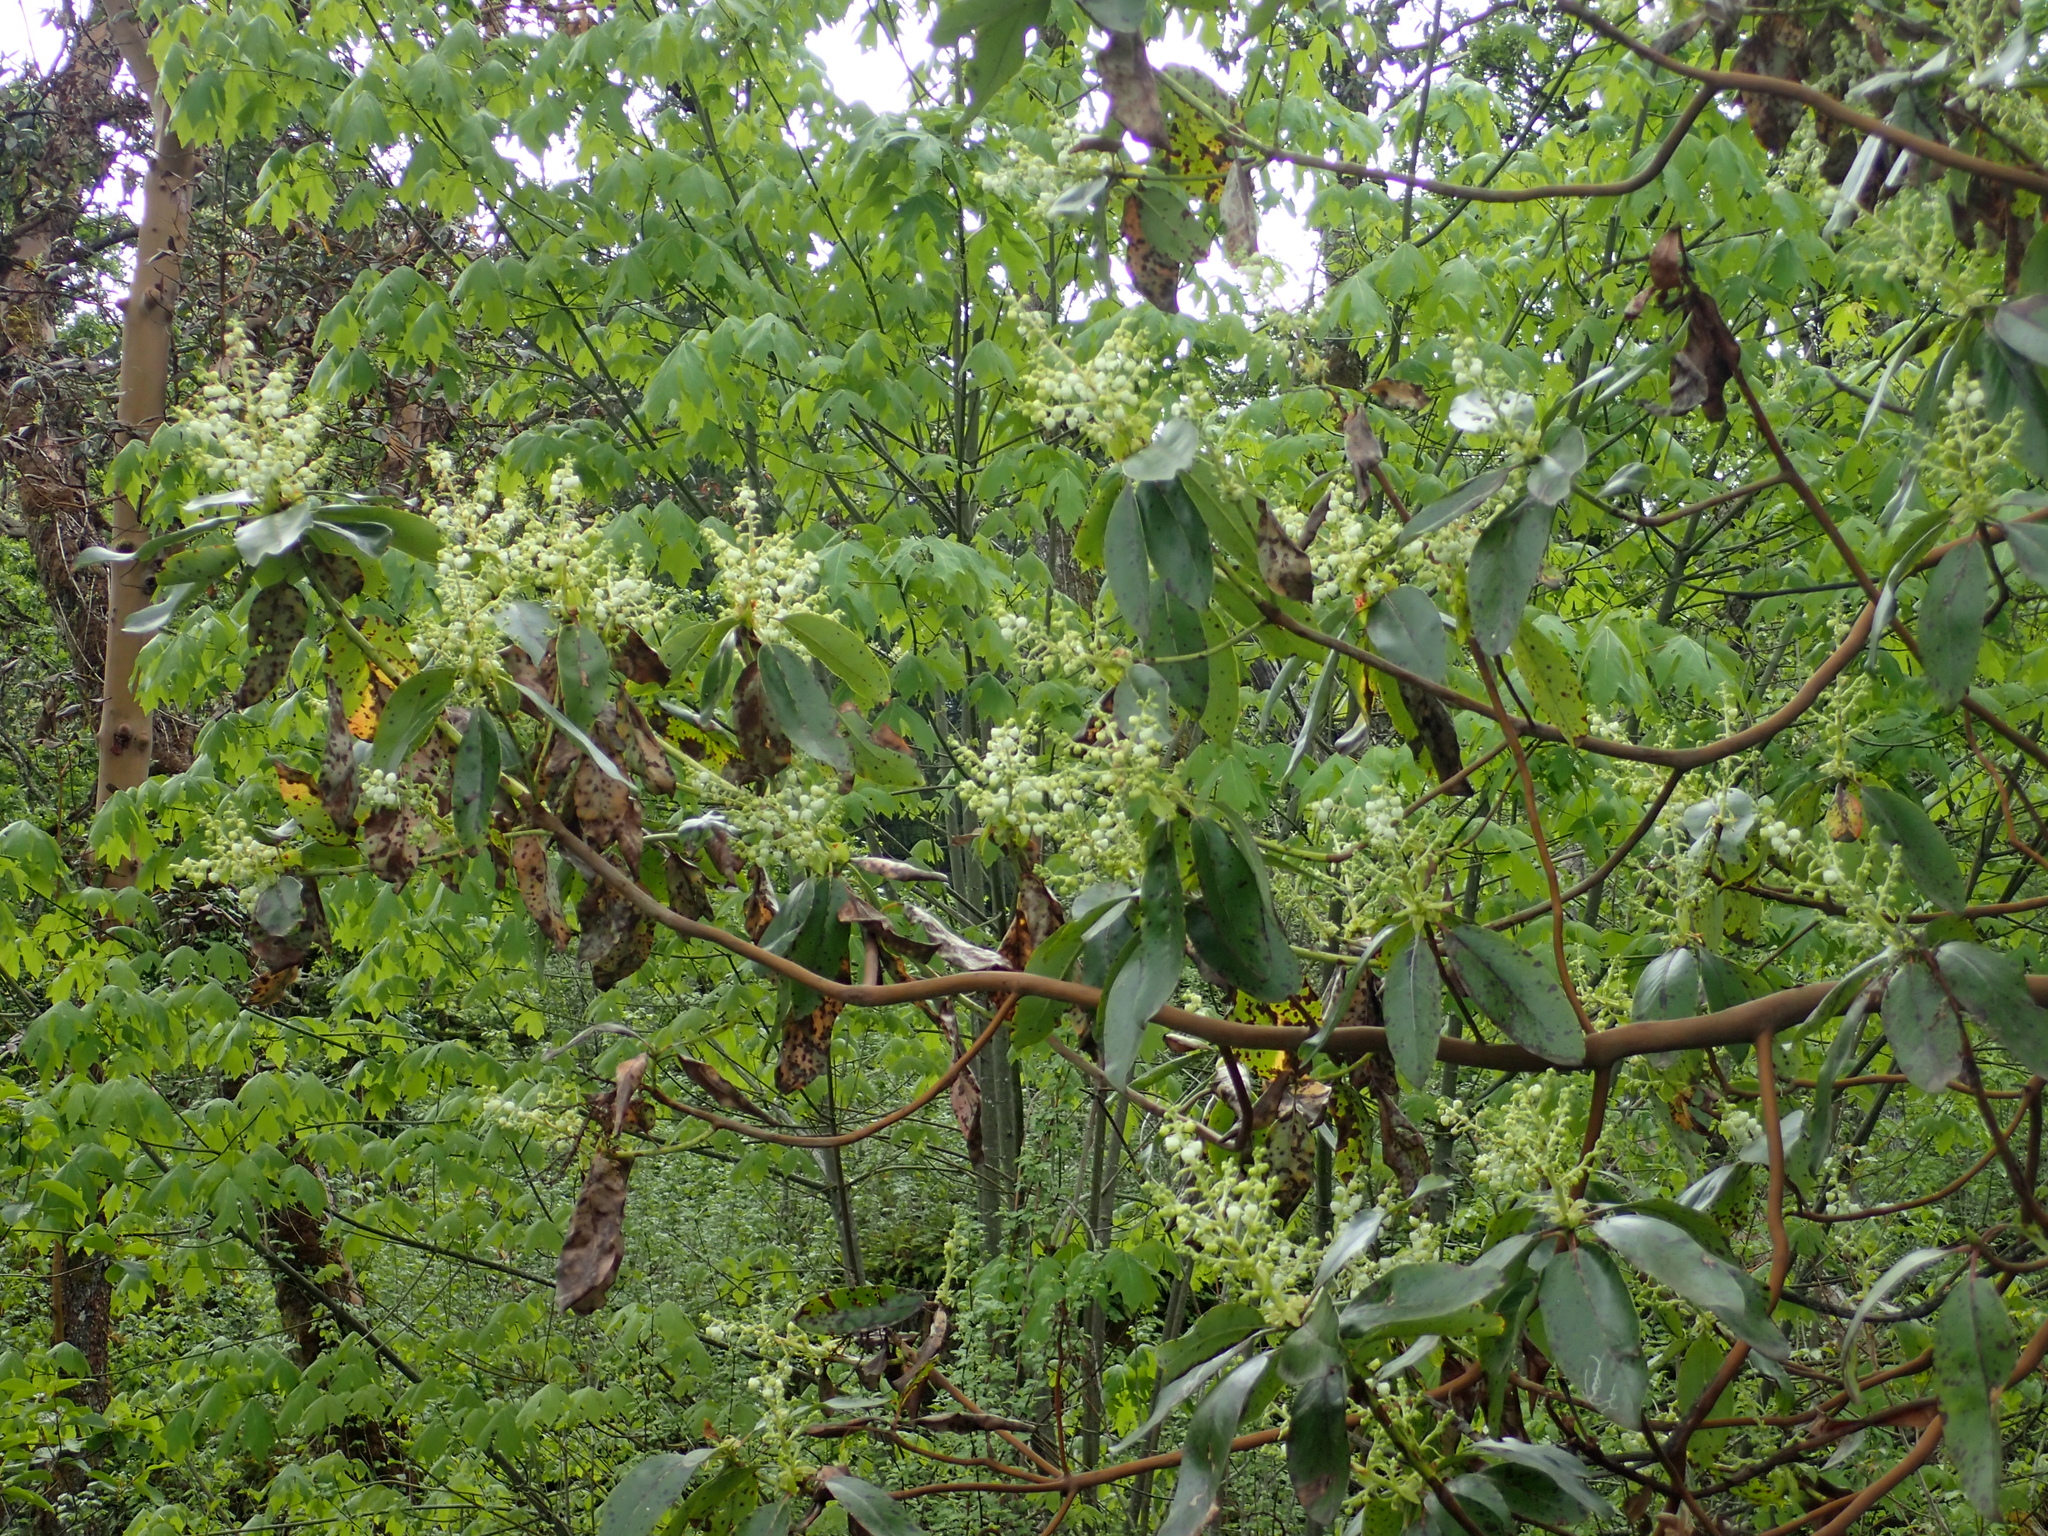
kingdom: Plantae
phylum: Tracheophyta
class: Magnoliopsida
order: Ericales
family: Ericaceae
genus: Arbutus
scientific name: Arbutus menziesii
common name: Pacific madrone
